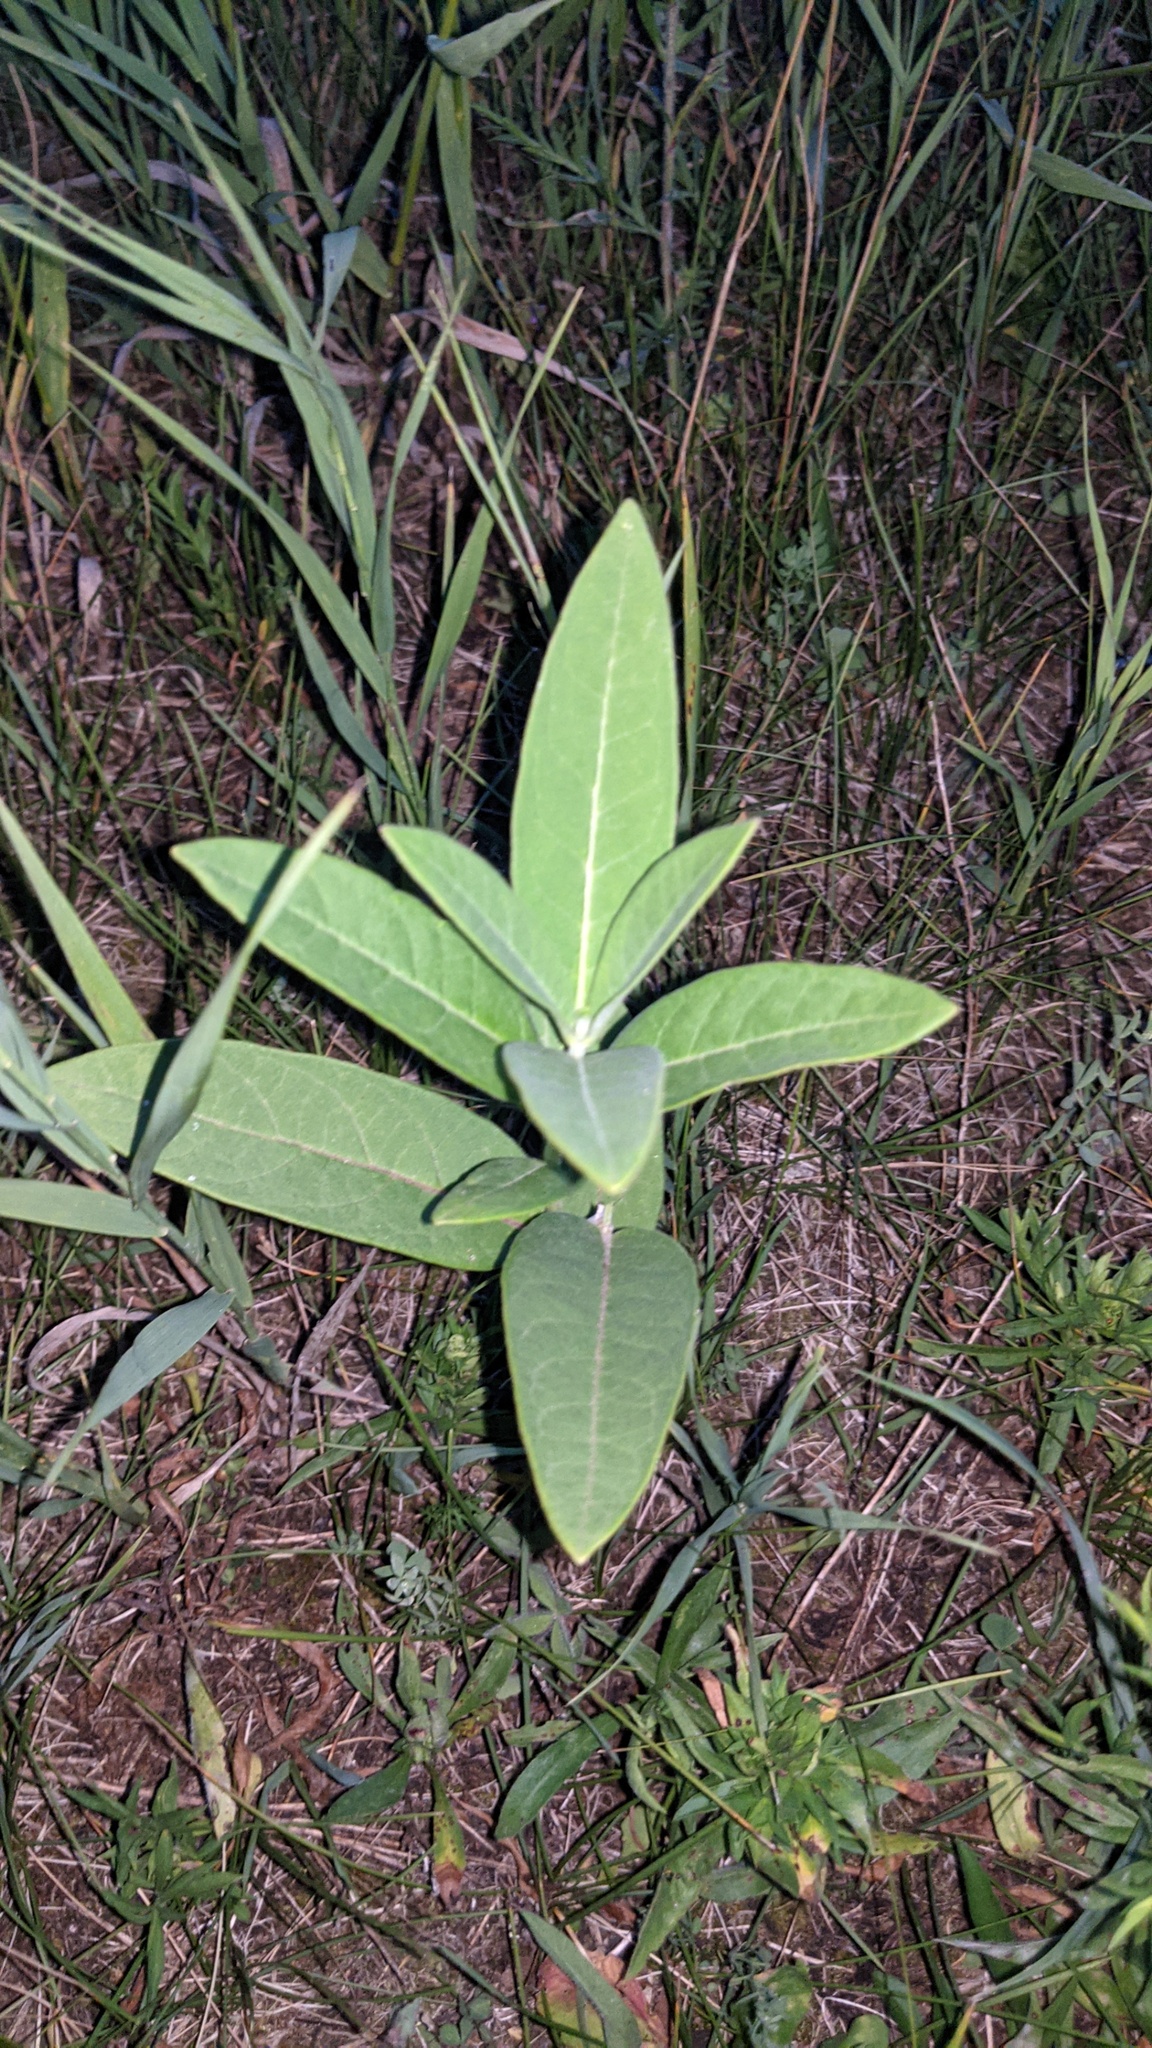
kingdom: Plantae
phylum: Tracheophyta
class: Magnoliopsida
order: Gentianales
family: Apocynaceae
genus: Asclepias
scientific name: Asclepias syriaca
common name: Common milkweed
